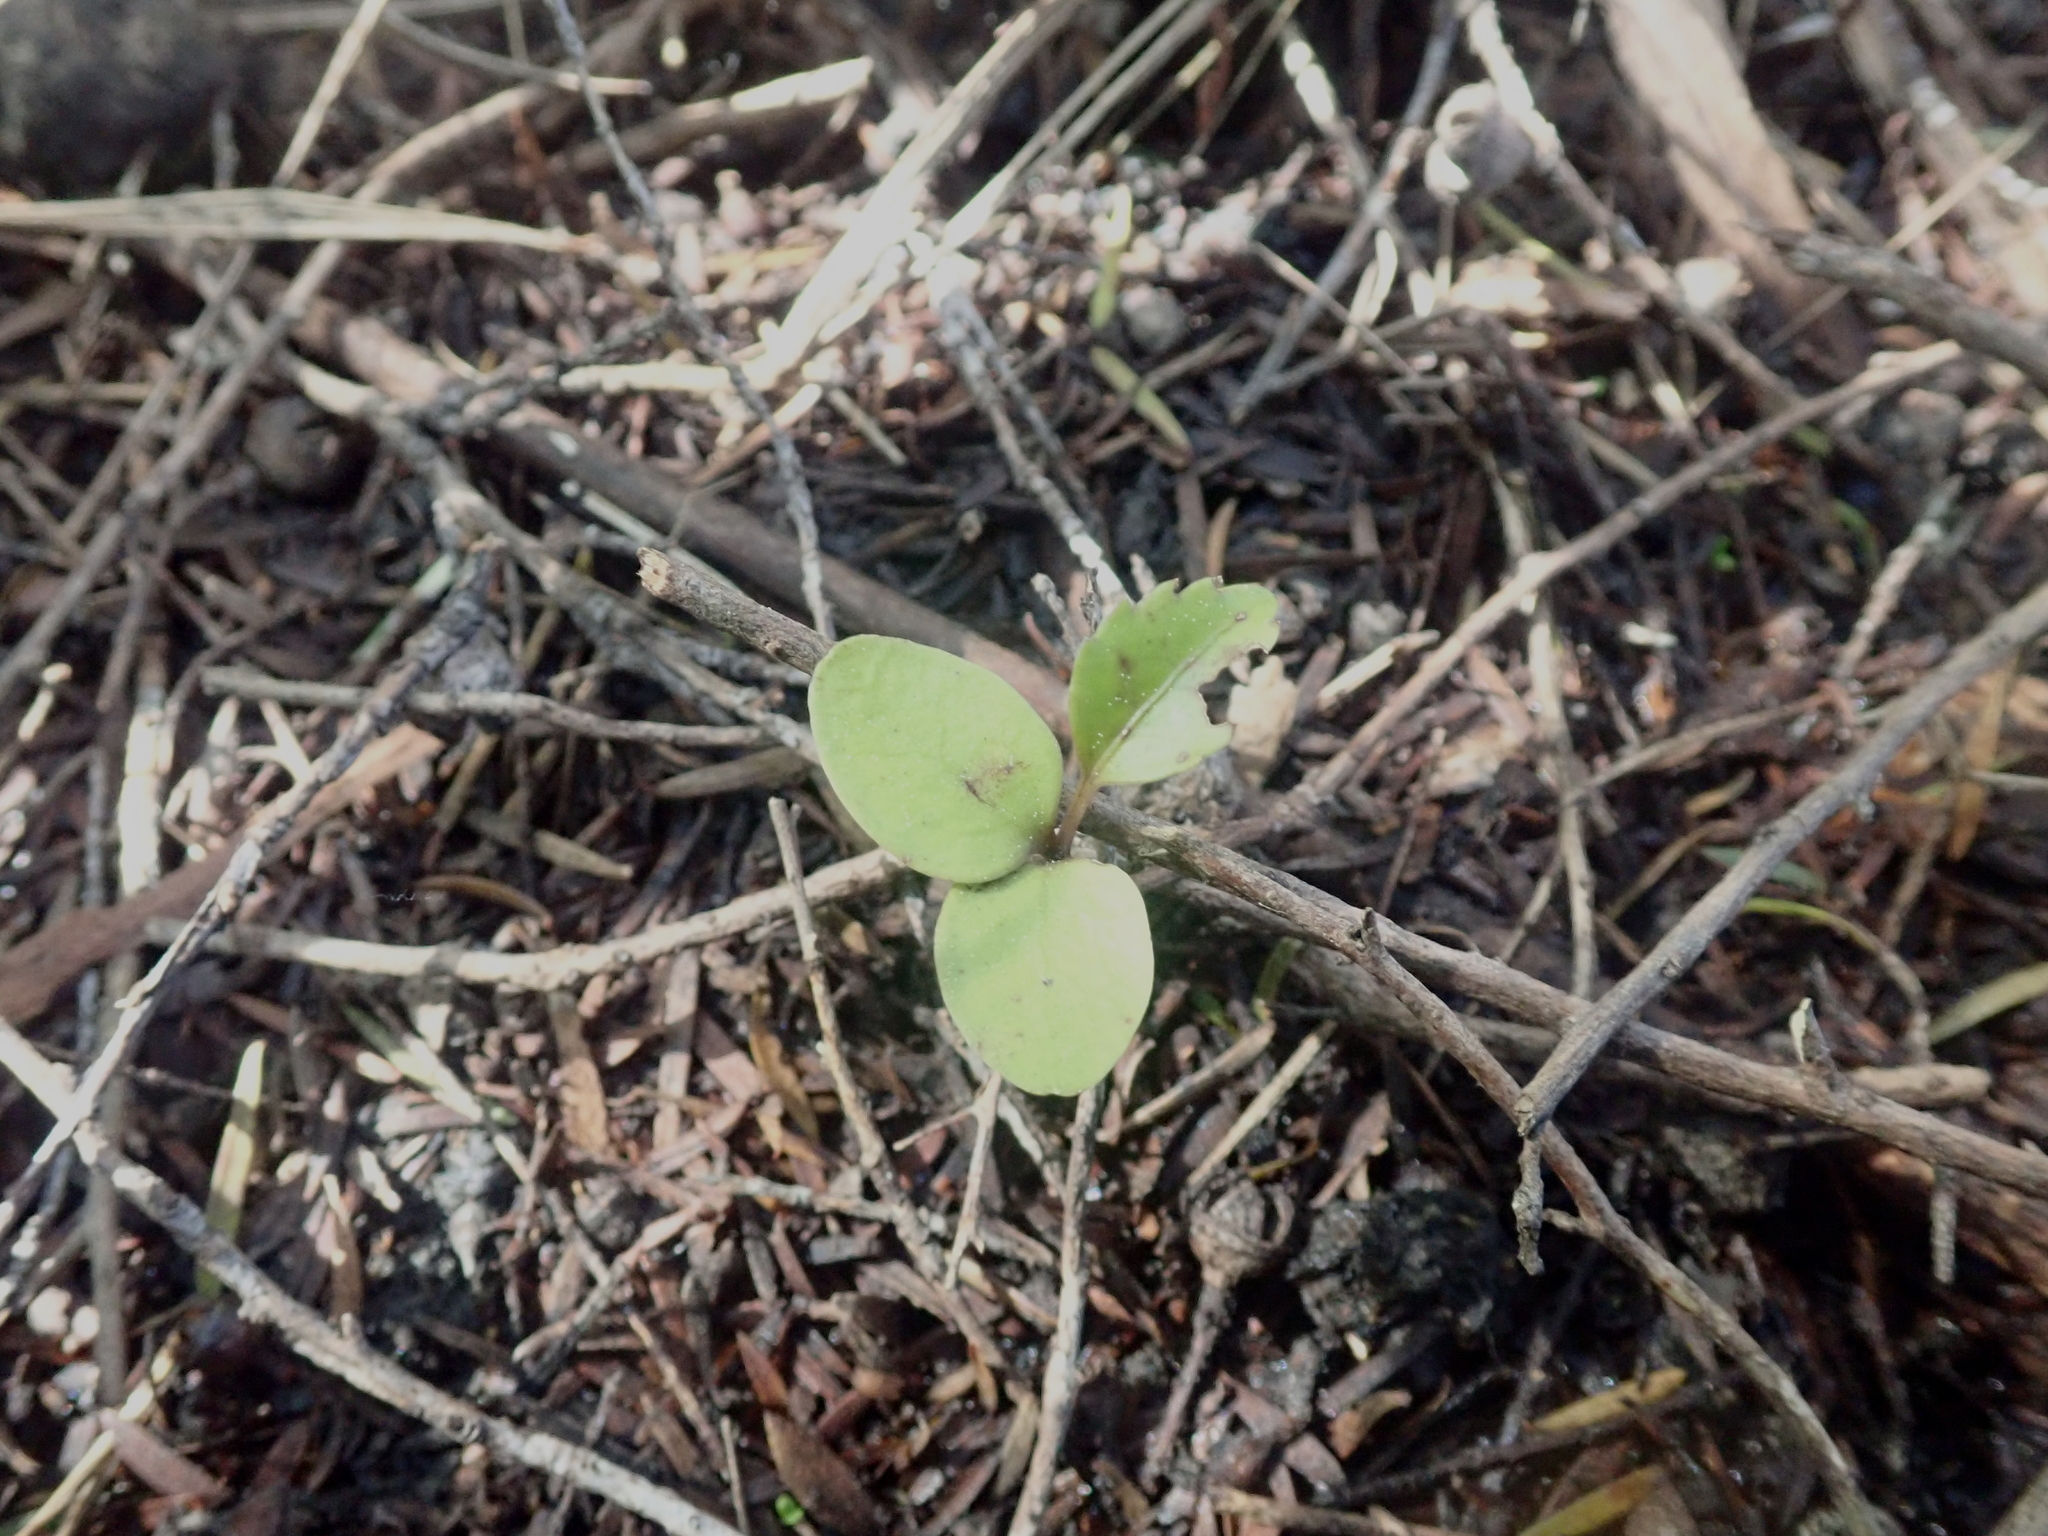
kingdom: Plantae
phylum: Tracheophyta
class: Magnoliopsida
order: Ericales
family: Primulaceae
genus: Myrsine
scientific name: Myrsine australis
